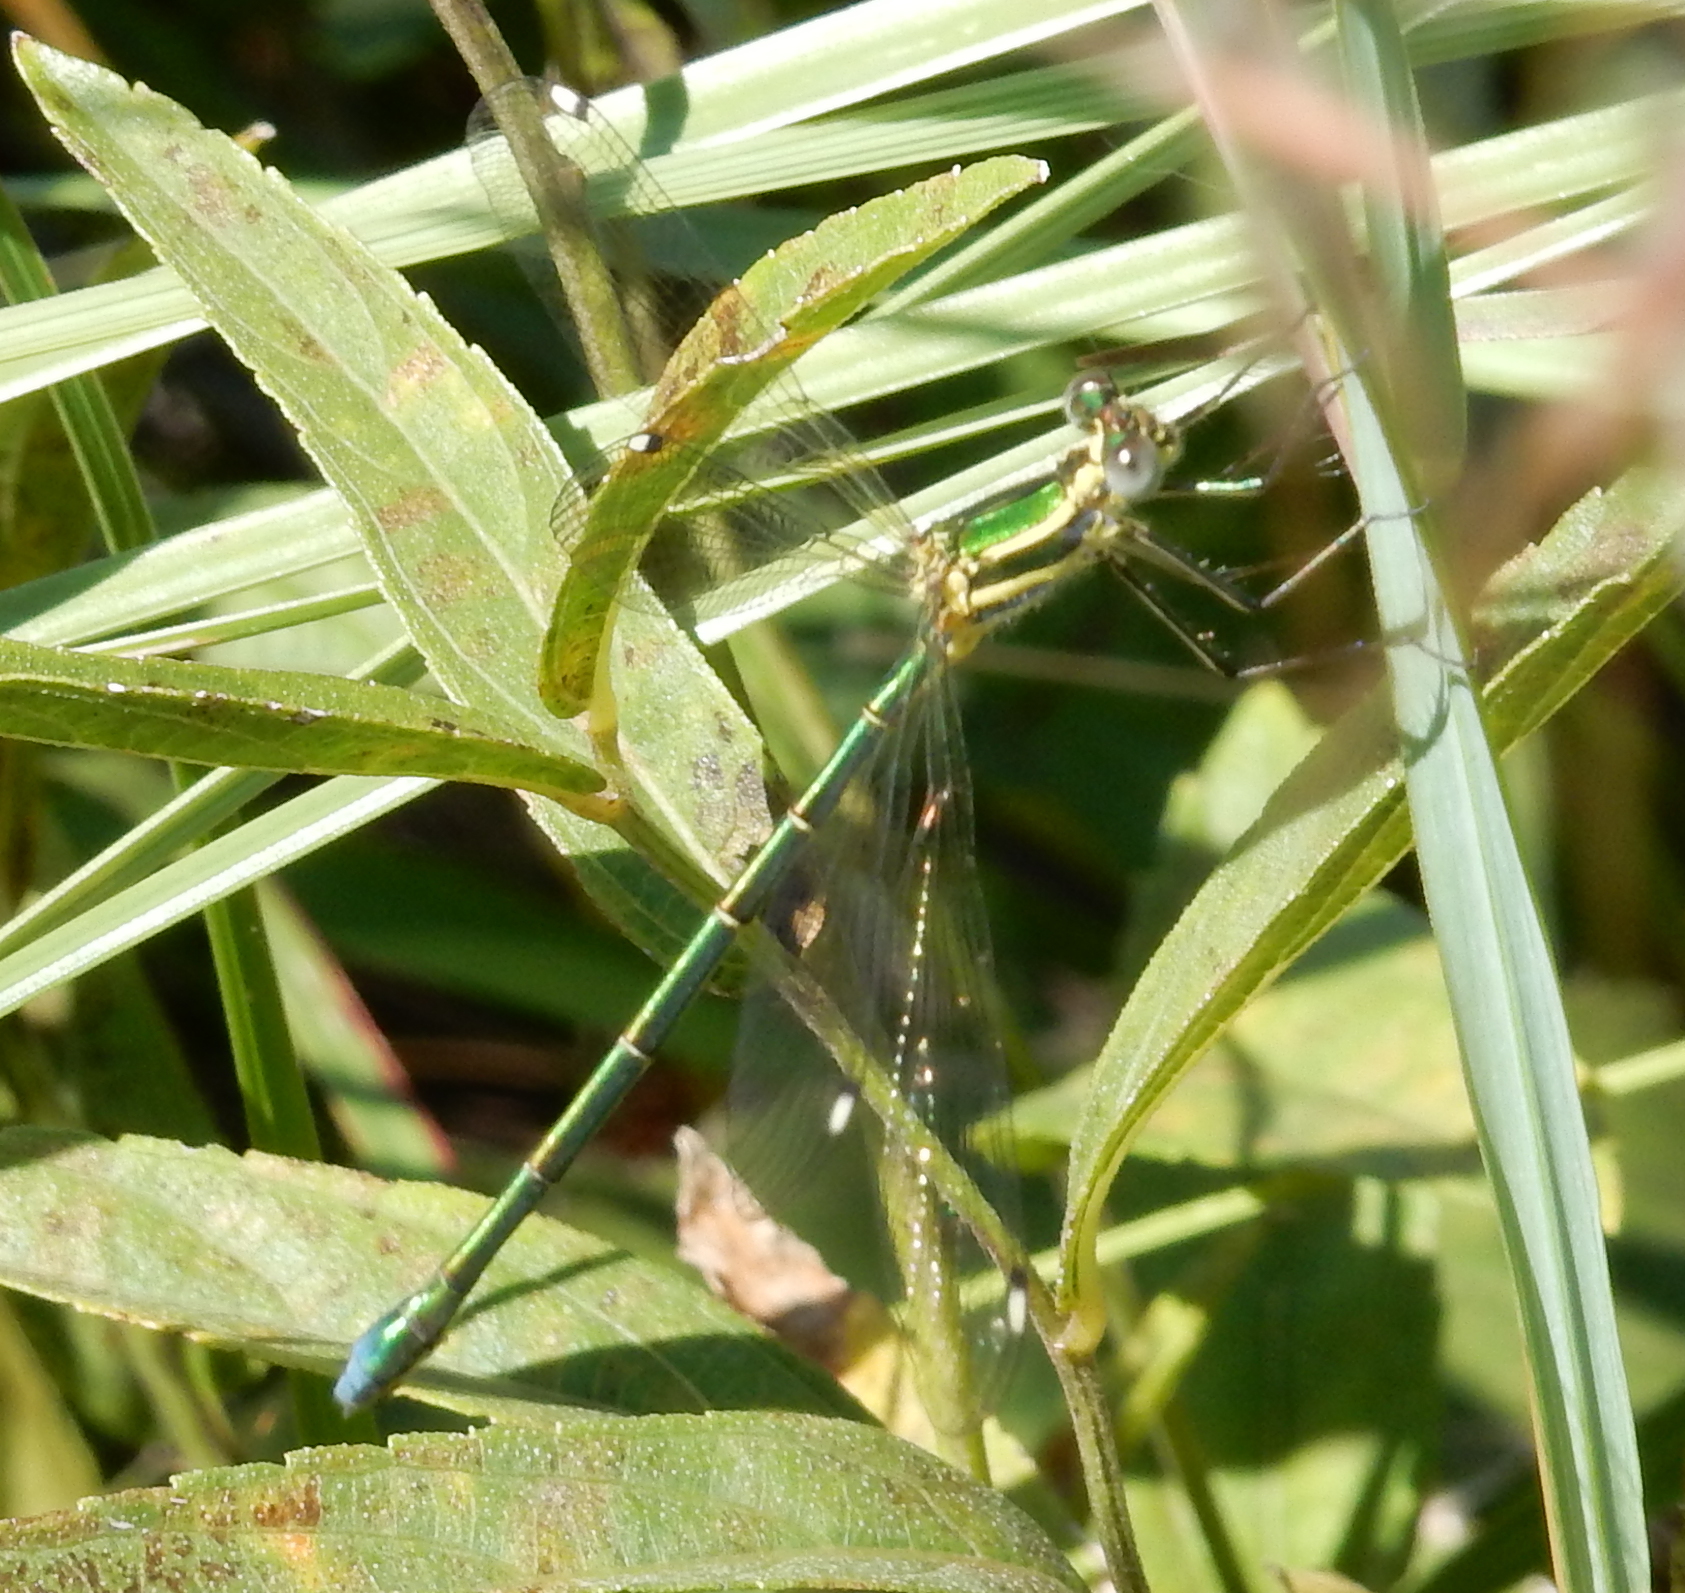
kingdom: Animalia
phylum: Arthropoda
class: Insecta
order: Odonata
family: Synlestidae
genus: Chlorolestes
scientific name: Chlorolestes fasciatus
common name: Mountain malachite
